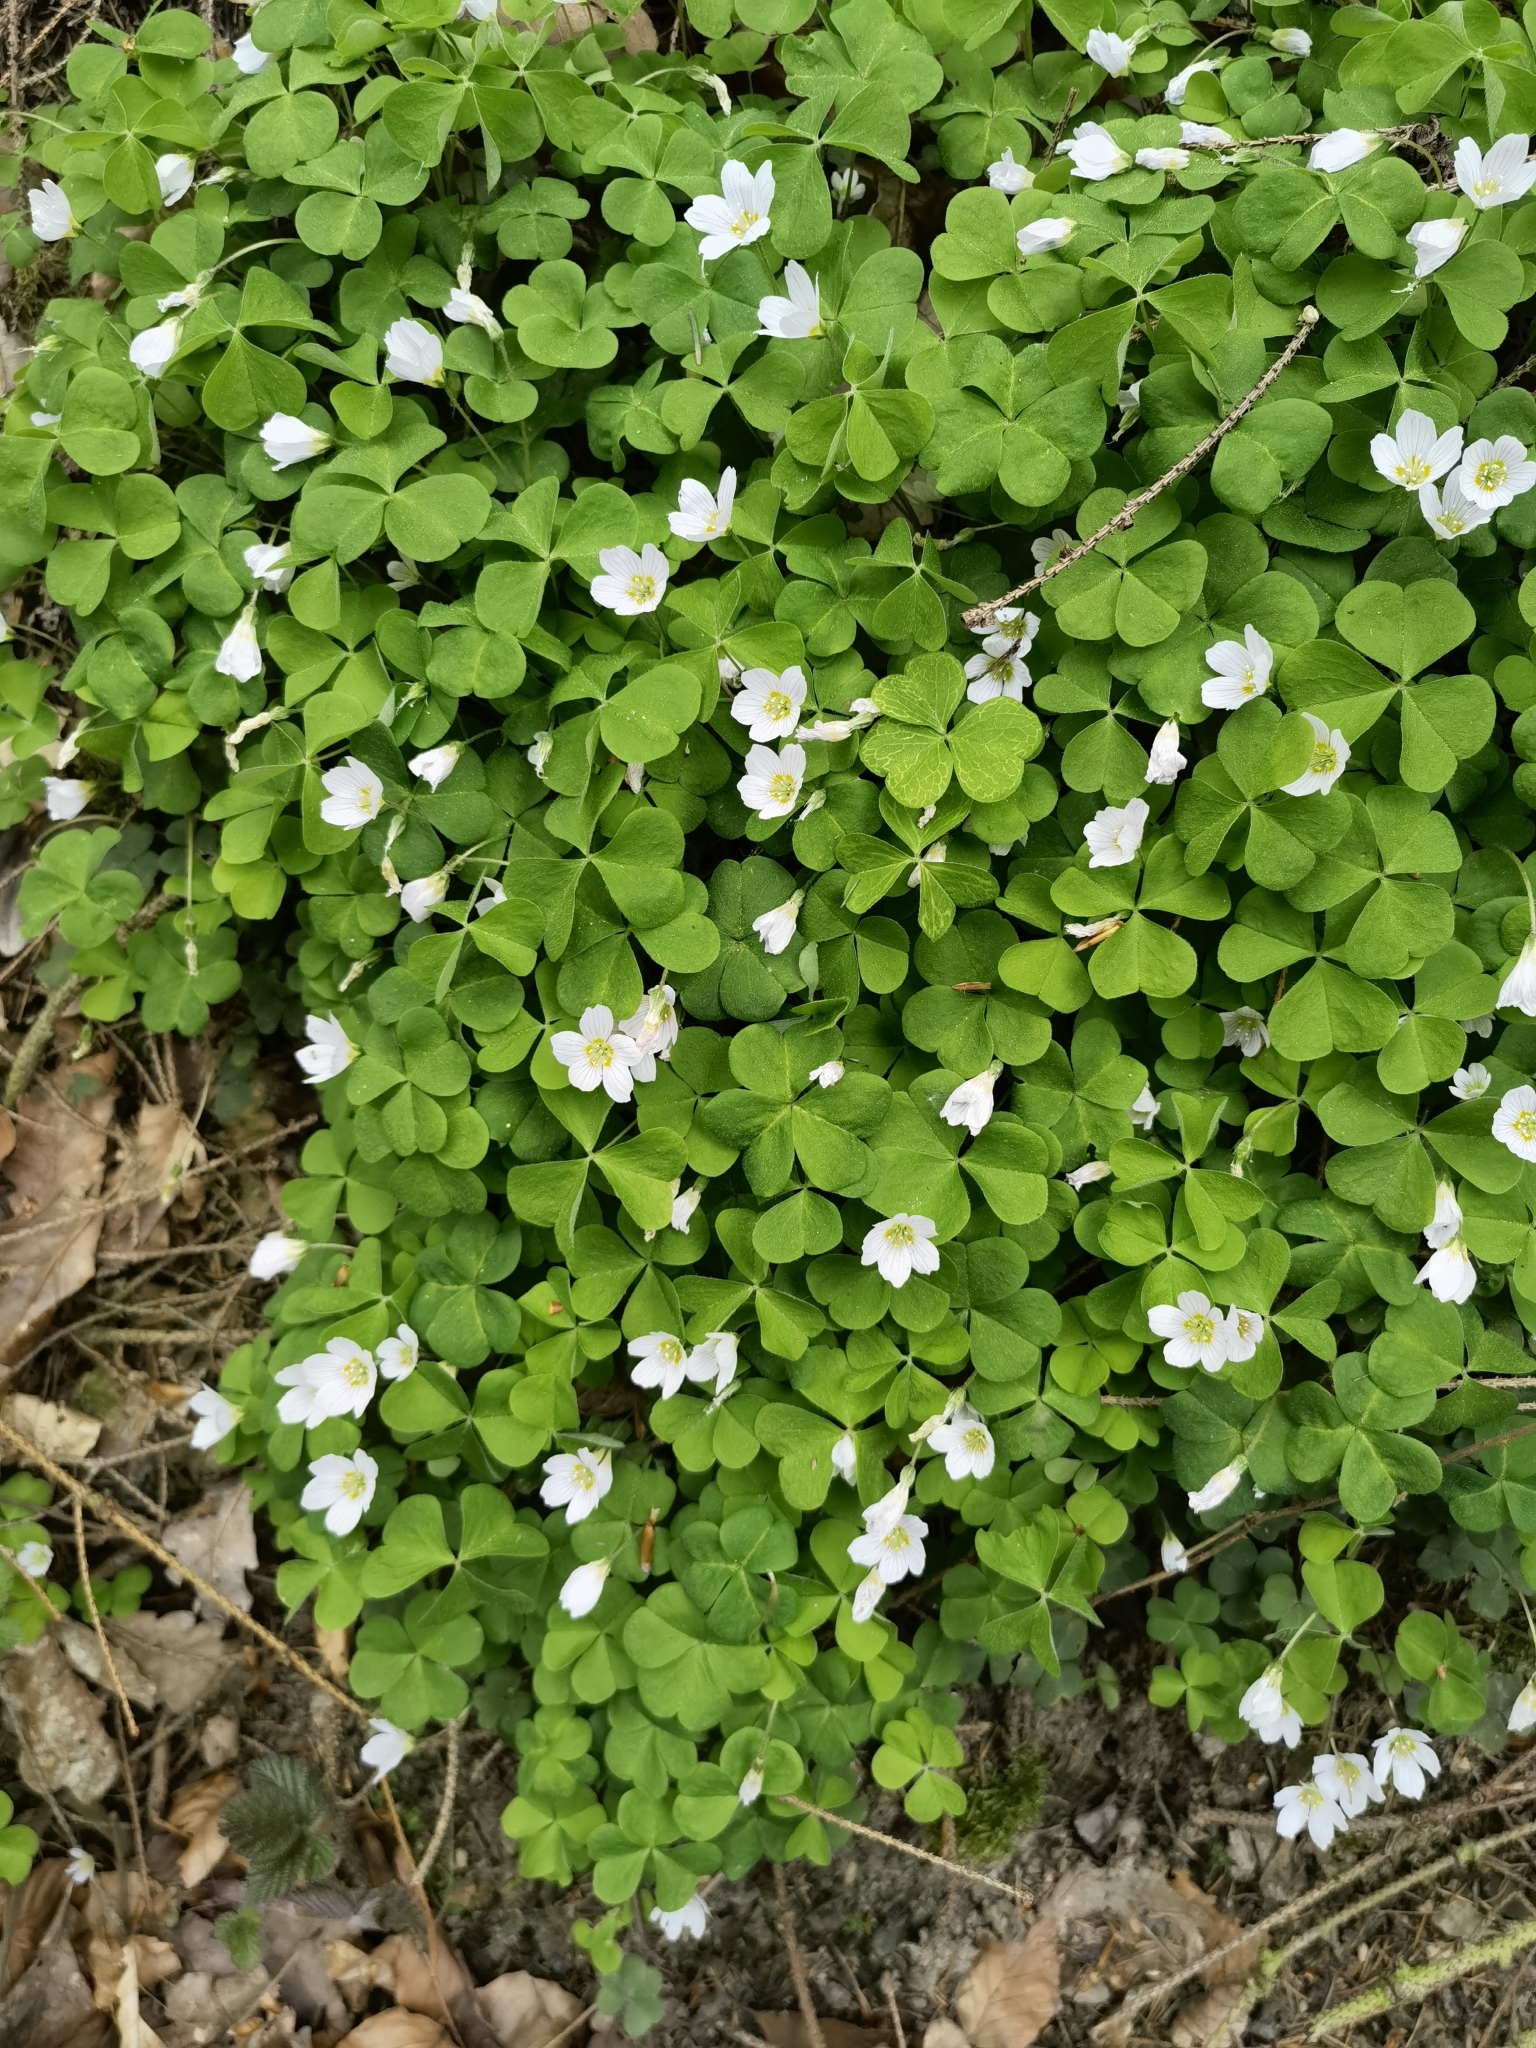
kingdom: Plantae
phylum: Tracheophyta
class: Magnoliopsida
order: Oxalidales
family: Oxalidaceae
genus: Oxalis
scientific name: Oxalis acetosella
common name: Wood-sorrel
